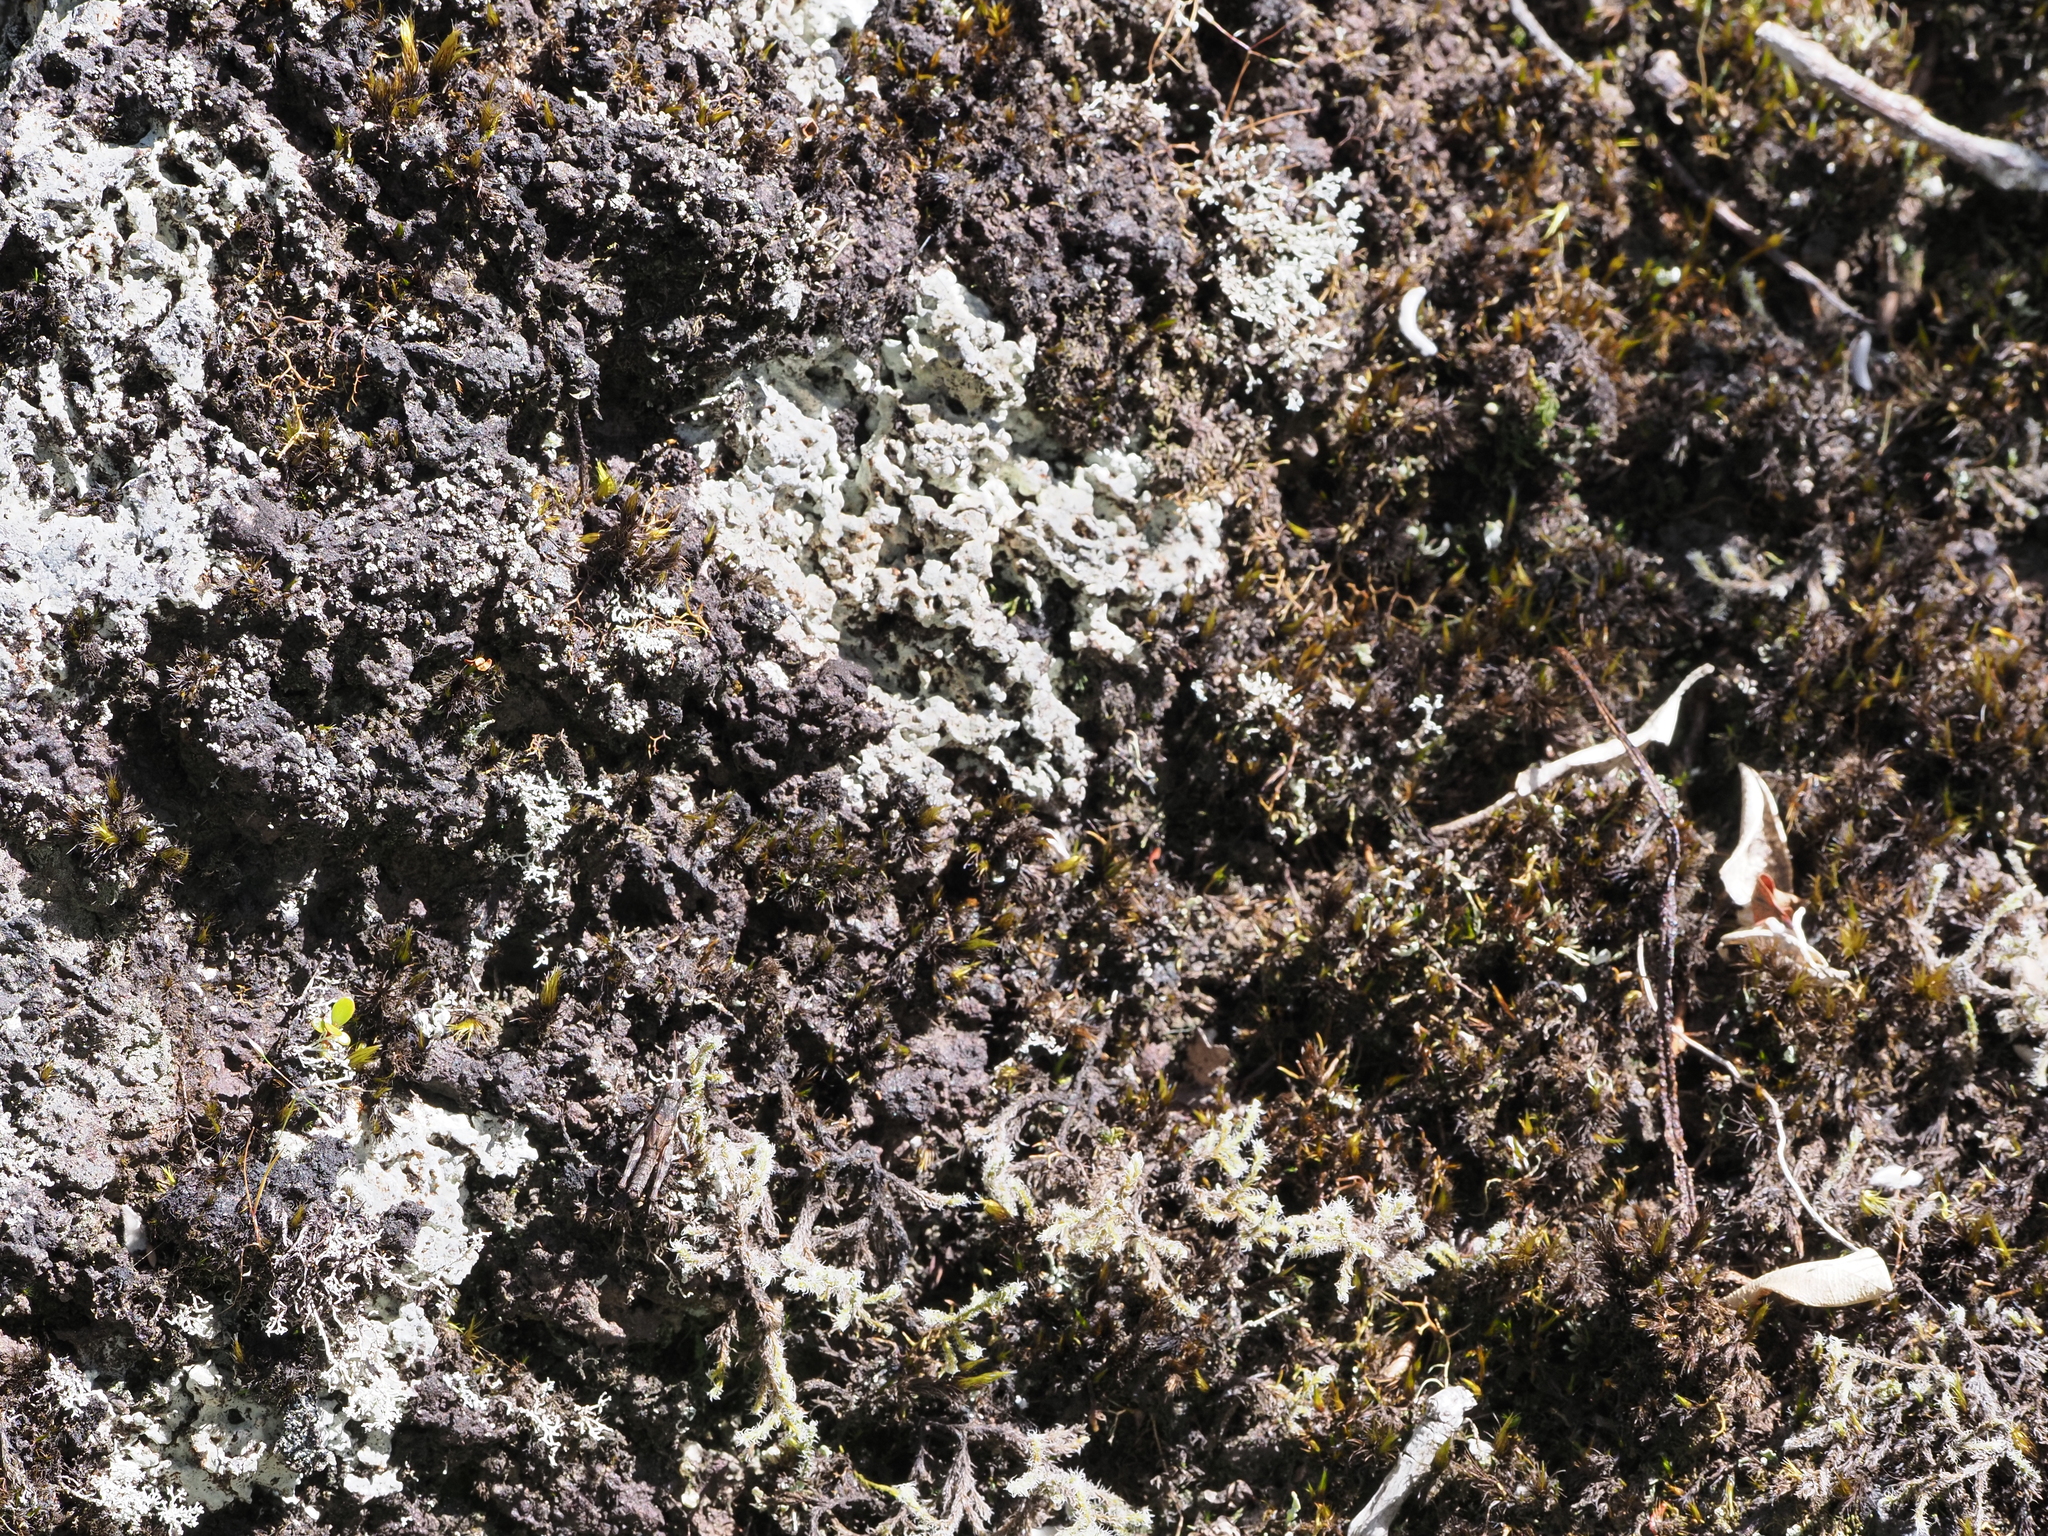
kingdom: Animalia
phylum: Arthropoda
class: Insecta
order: Orthoptera
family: Acrididae
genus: Phaulacridium
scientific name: Phaulacridium marginale
